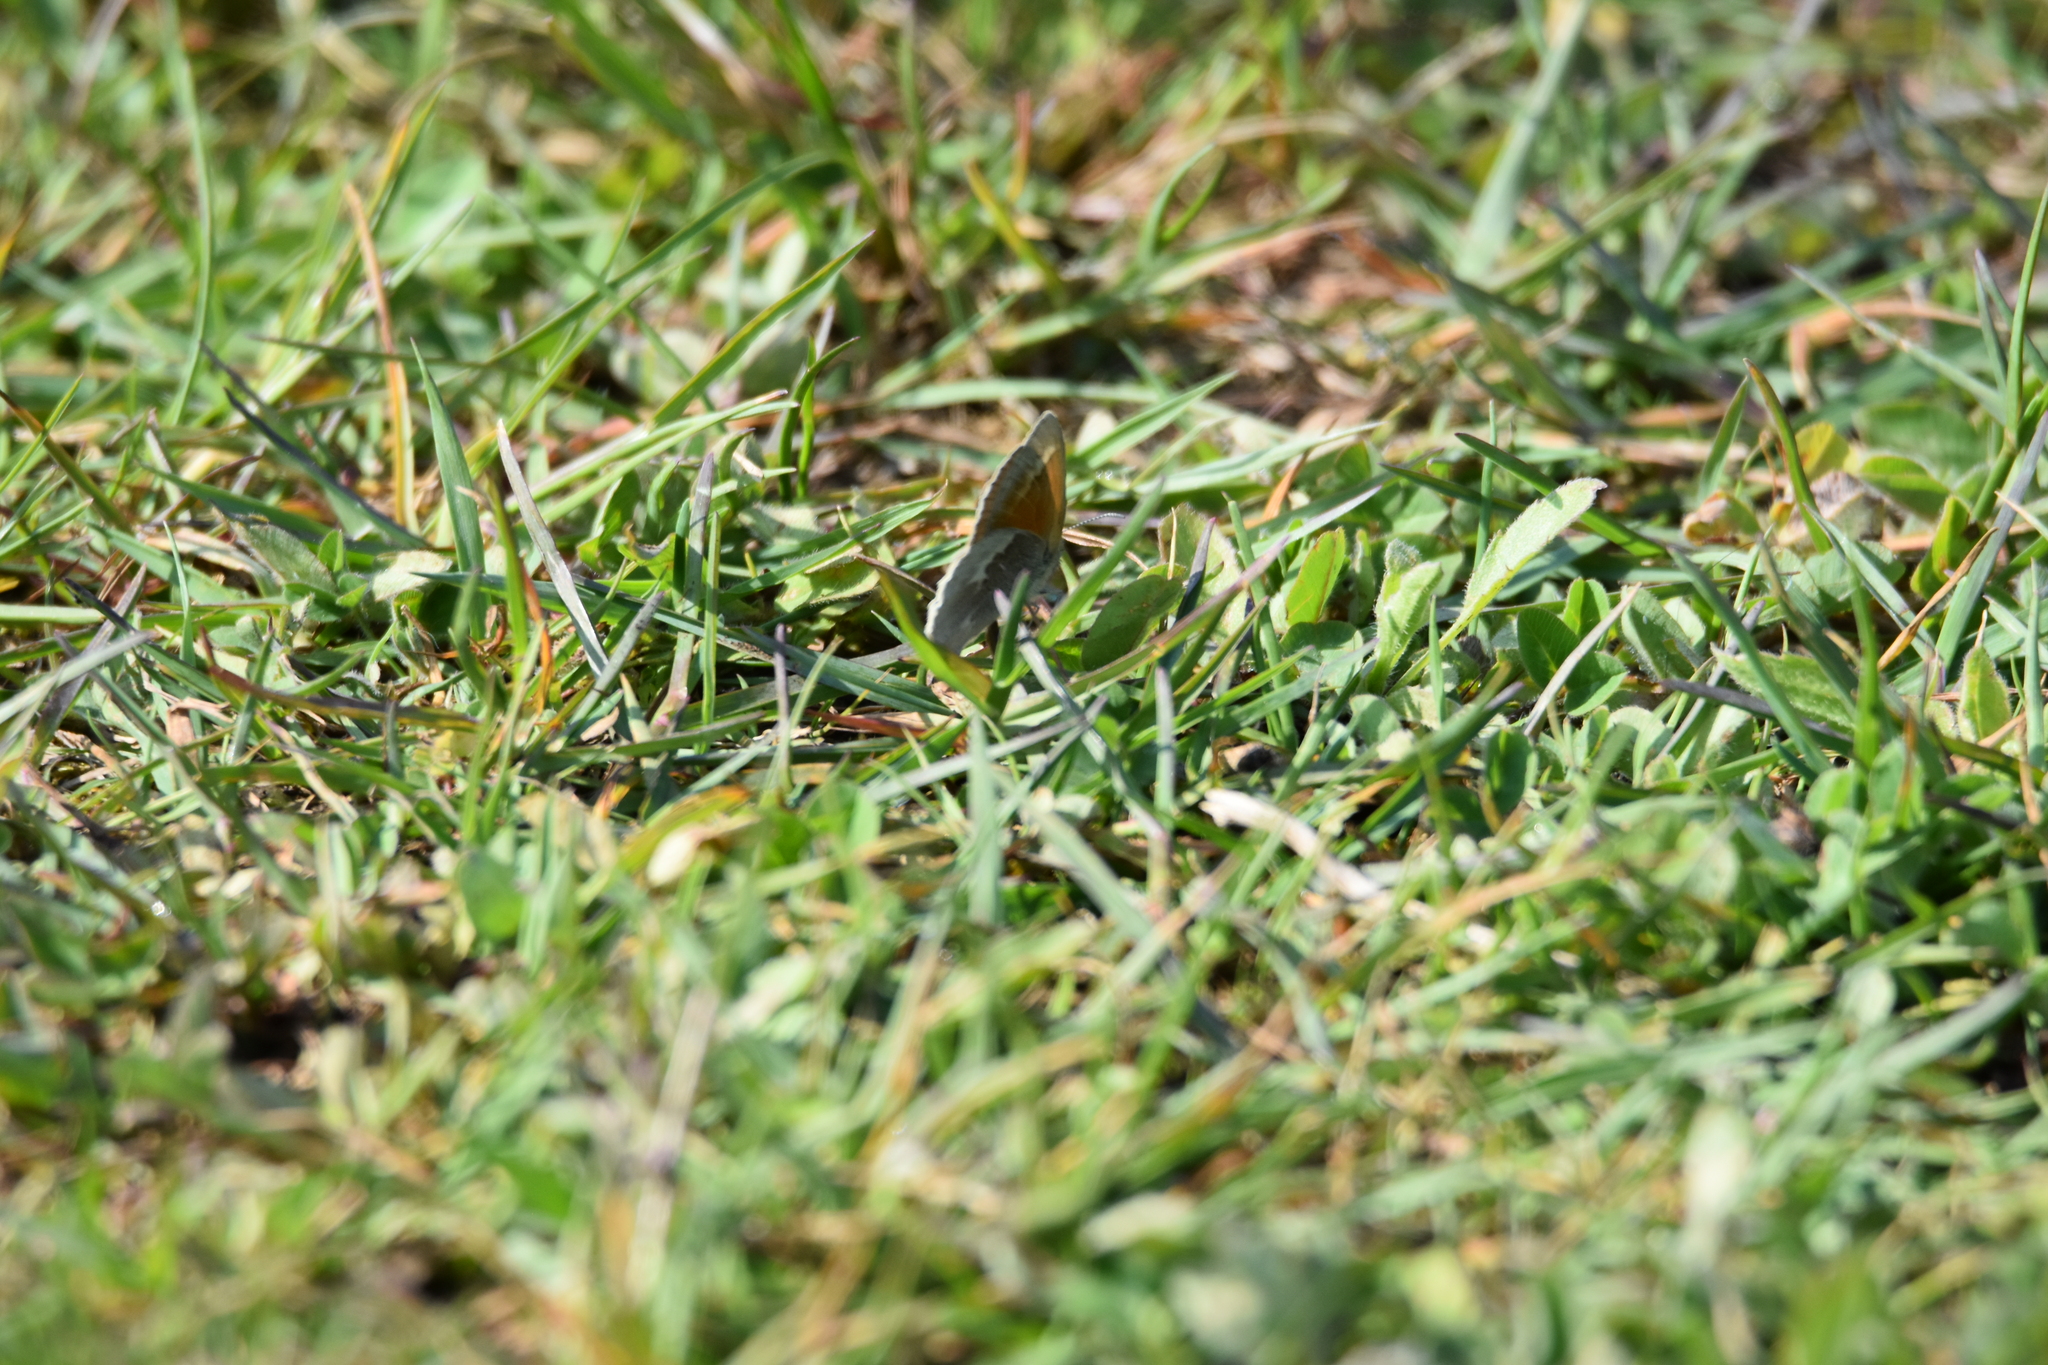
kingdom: Animalia
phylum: Arthropoda
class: Insecta
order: Lepidoptera
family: Nymphalidae
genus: Coenonympha
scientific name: Coenonympha california
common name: Common ringlet
